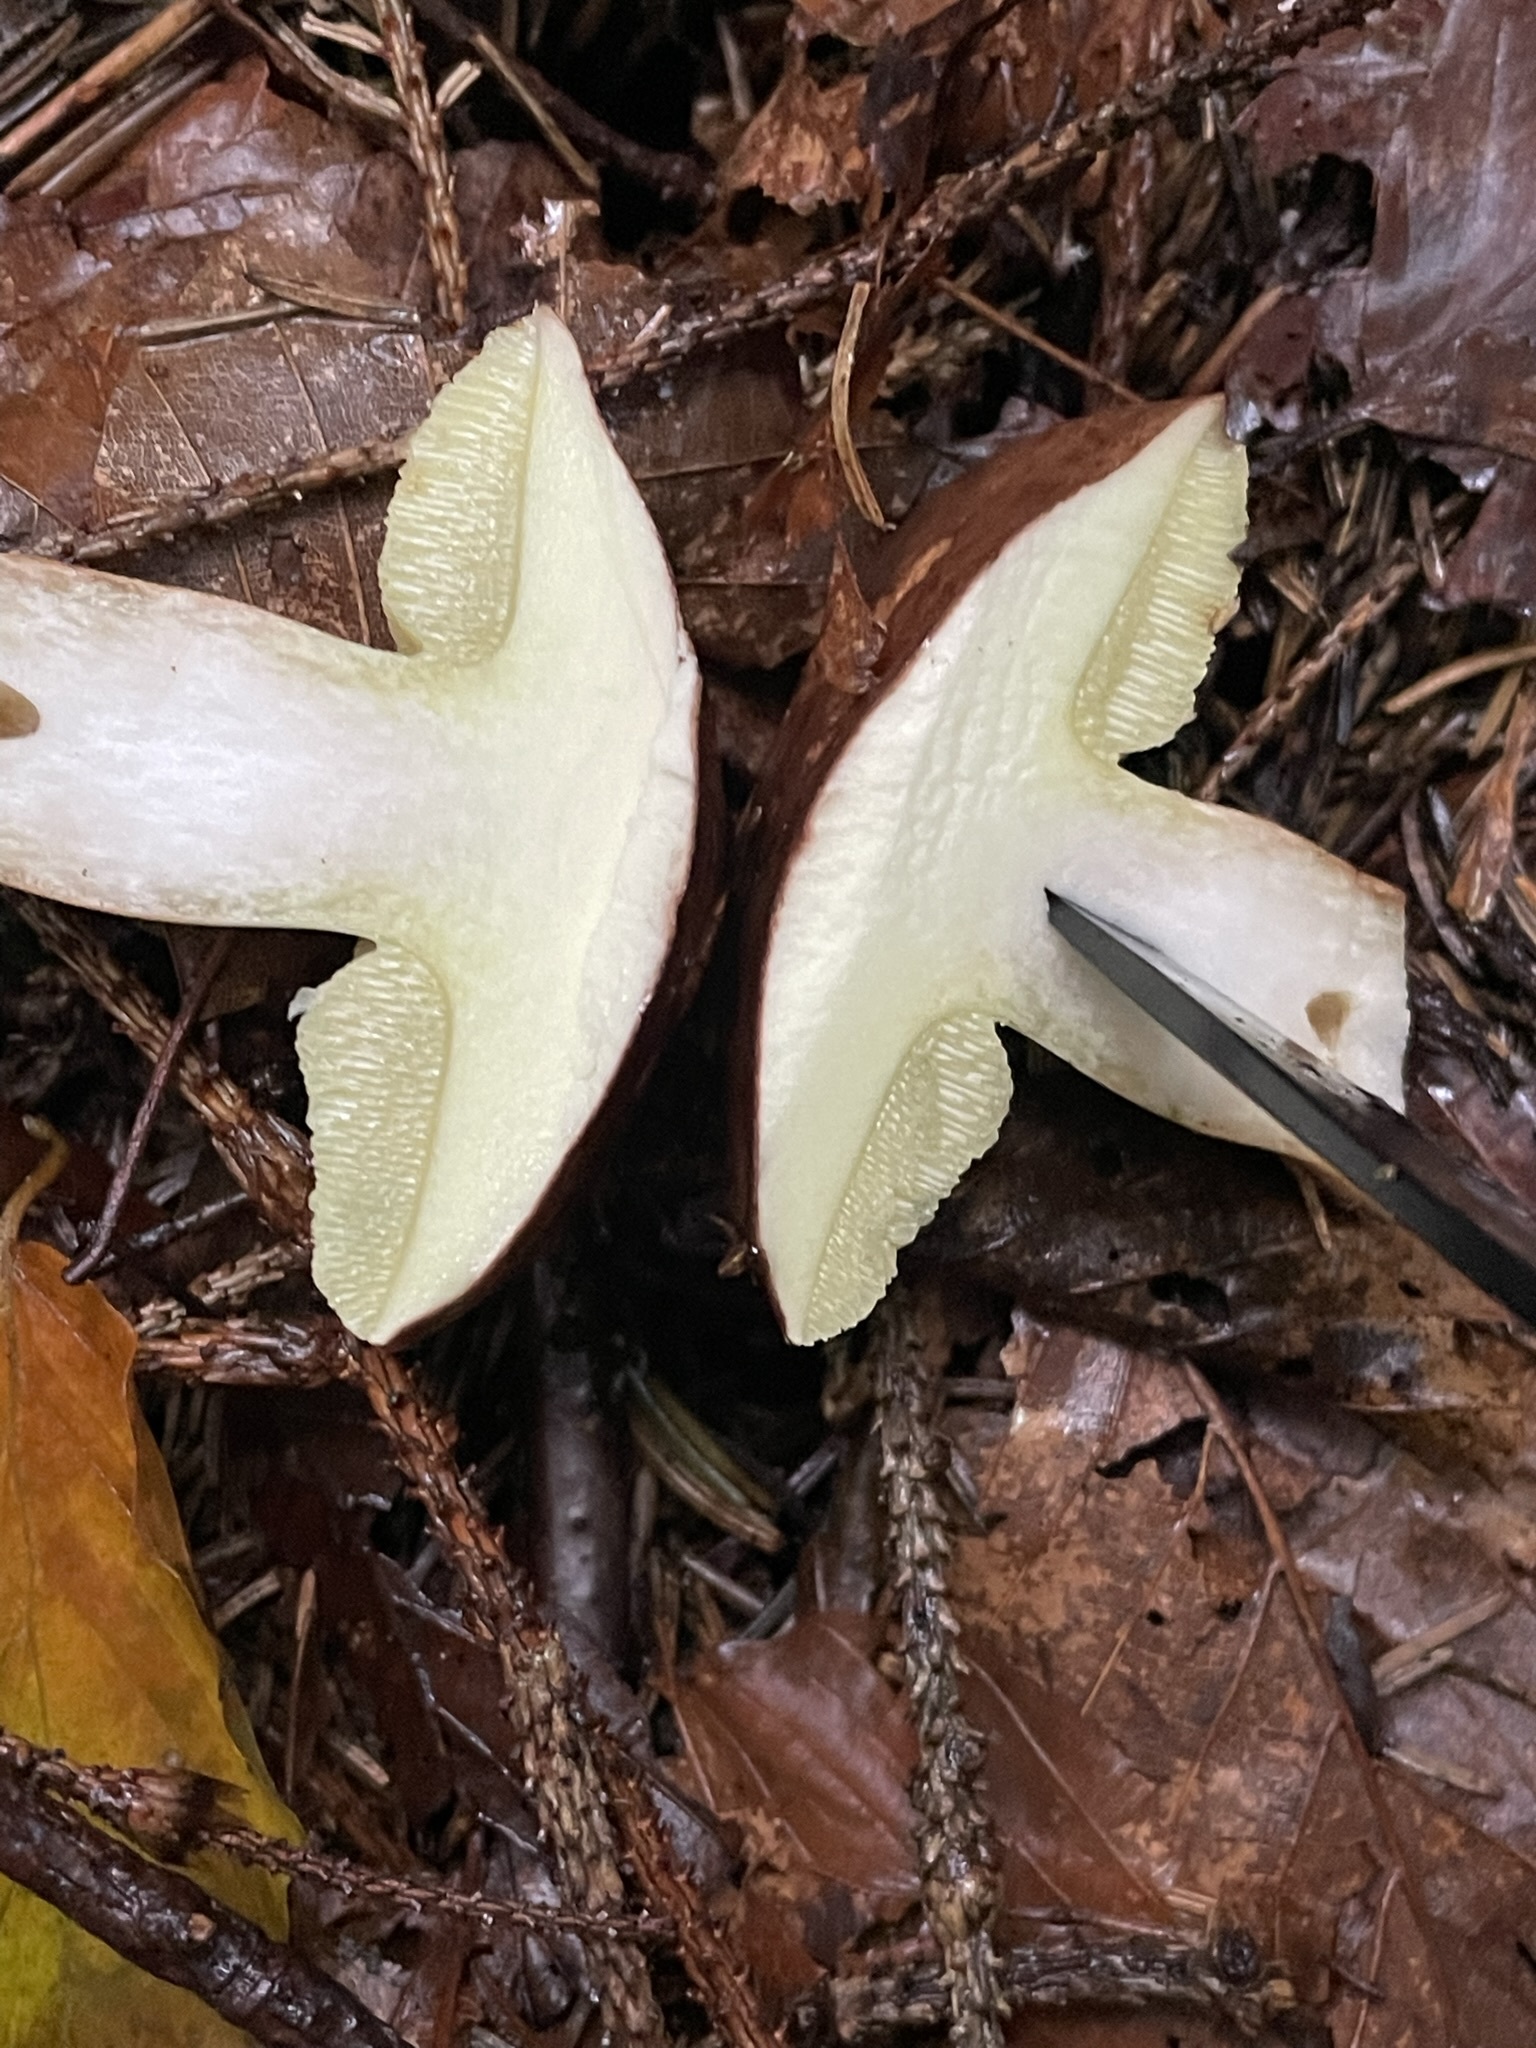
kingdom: Fungi
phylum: Basidiomycota
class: Agaricomycetes
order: Boletales
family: Boletaceae
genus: Imleria
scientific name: Imleria badia
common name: Bay bolete
